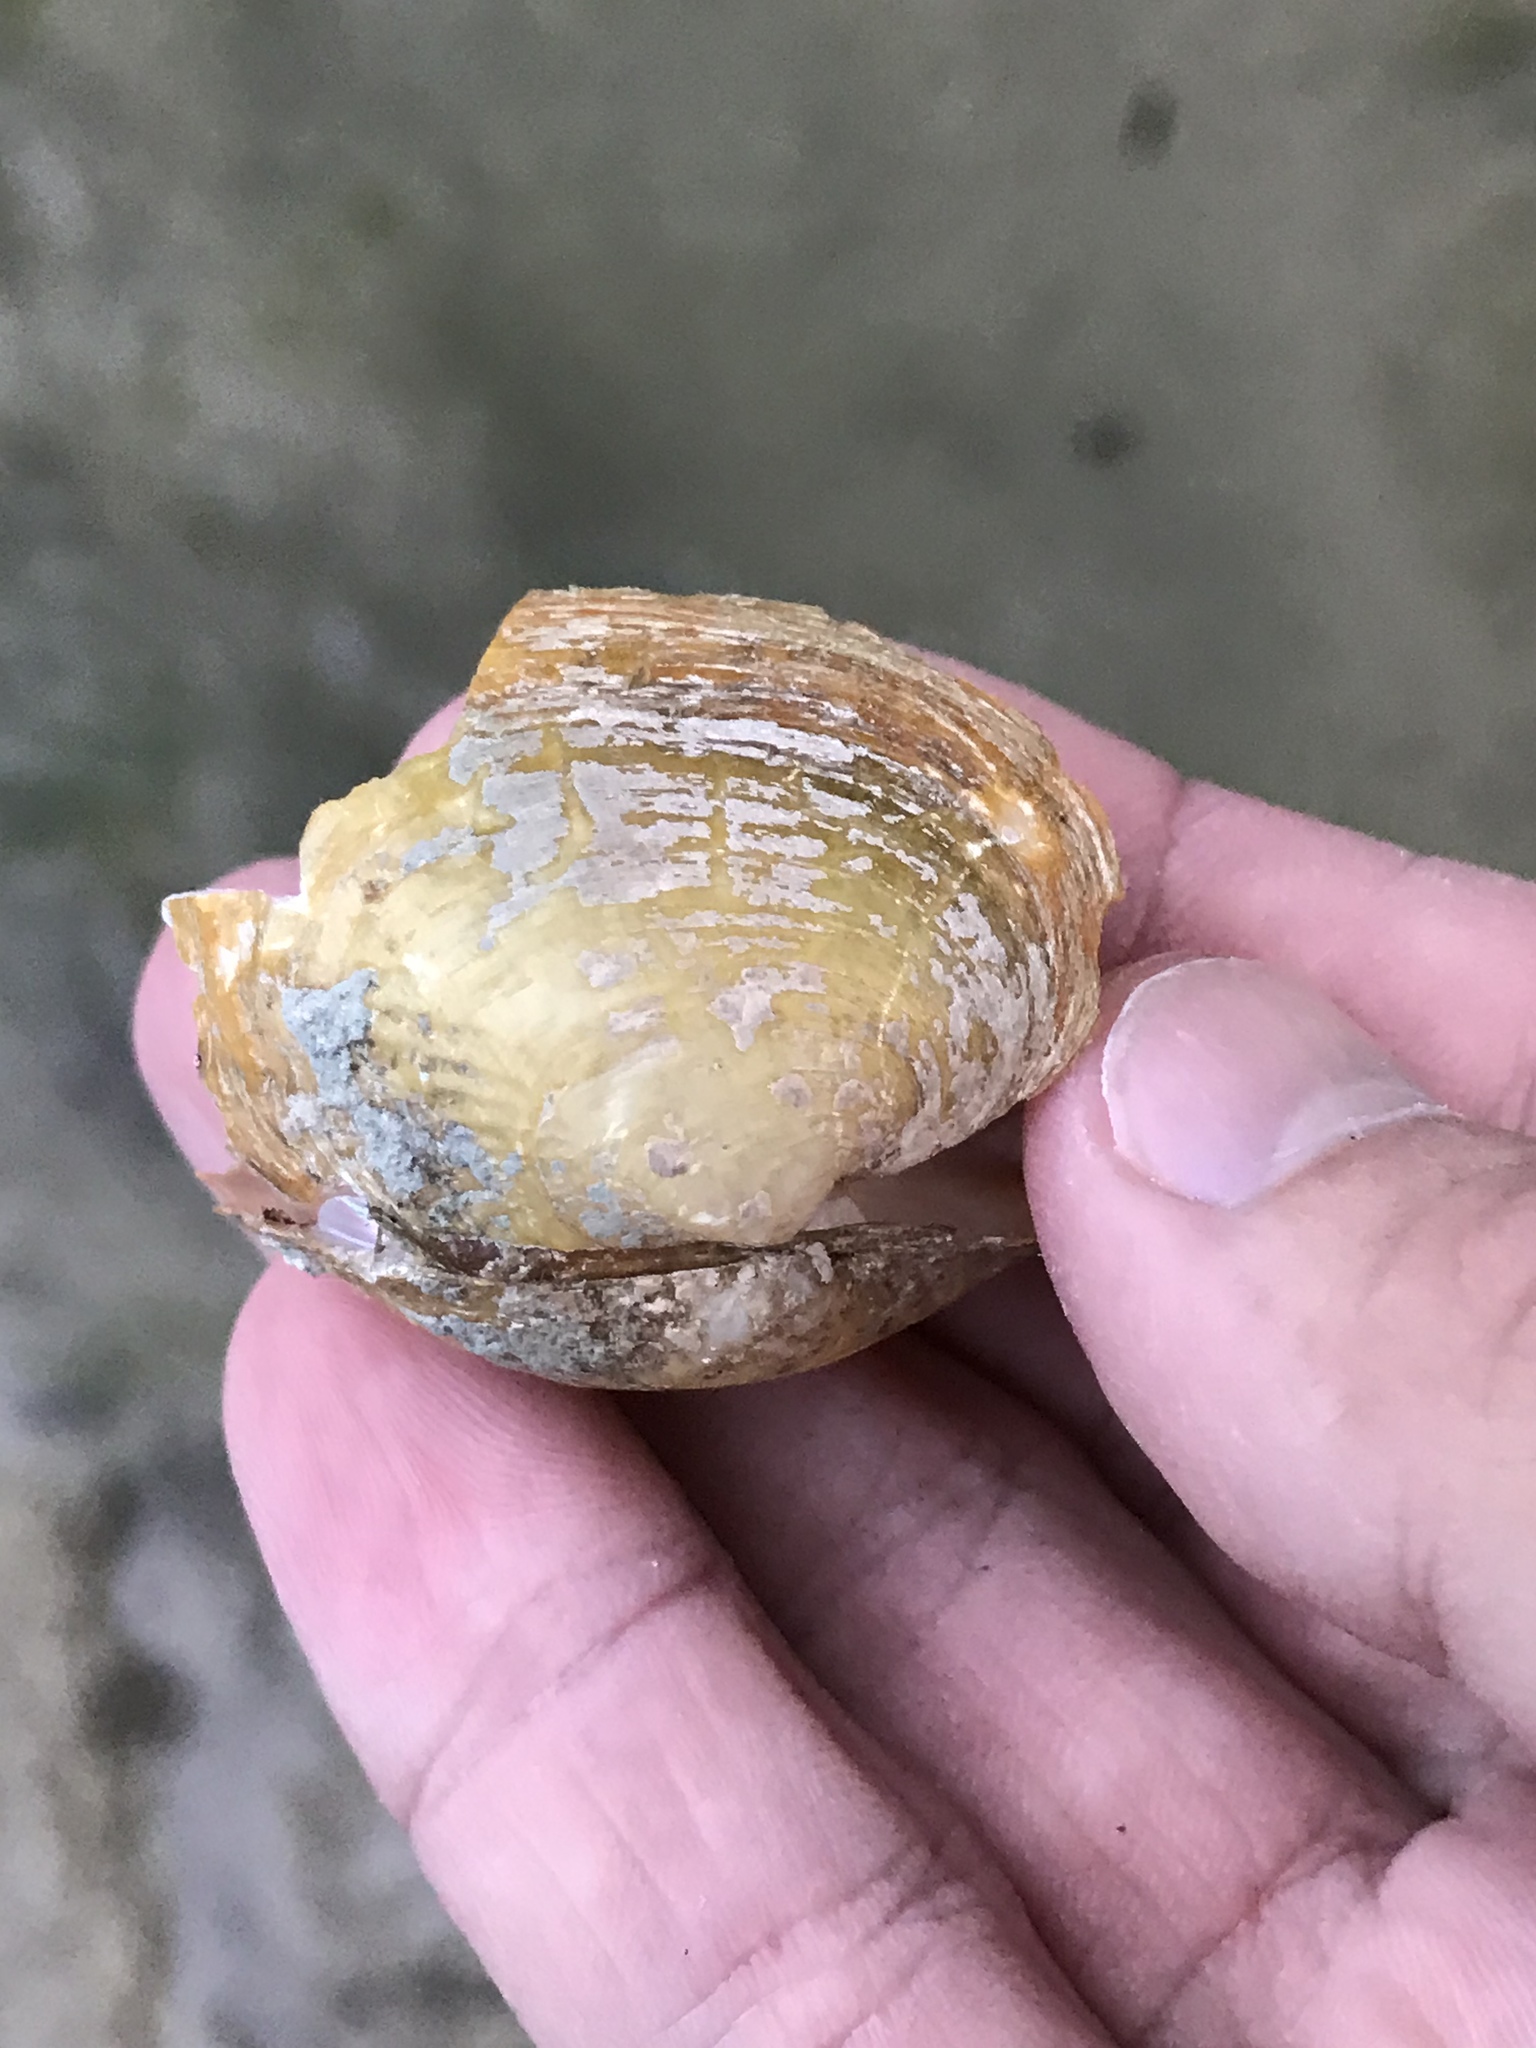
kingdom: Animalia
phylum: Mollusca
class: Bivalvia
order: Unionida
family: Unionidae
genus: Cyclonaias
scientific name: Cyclonaias necki
